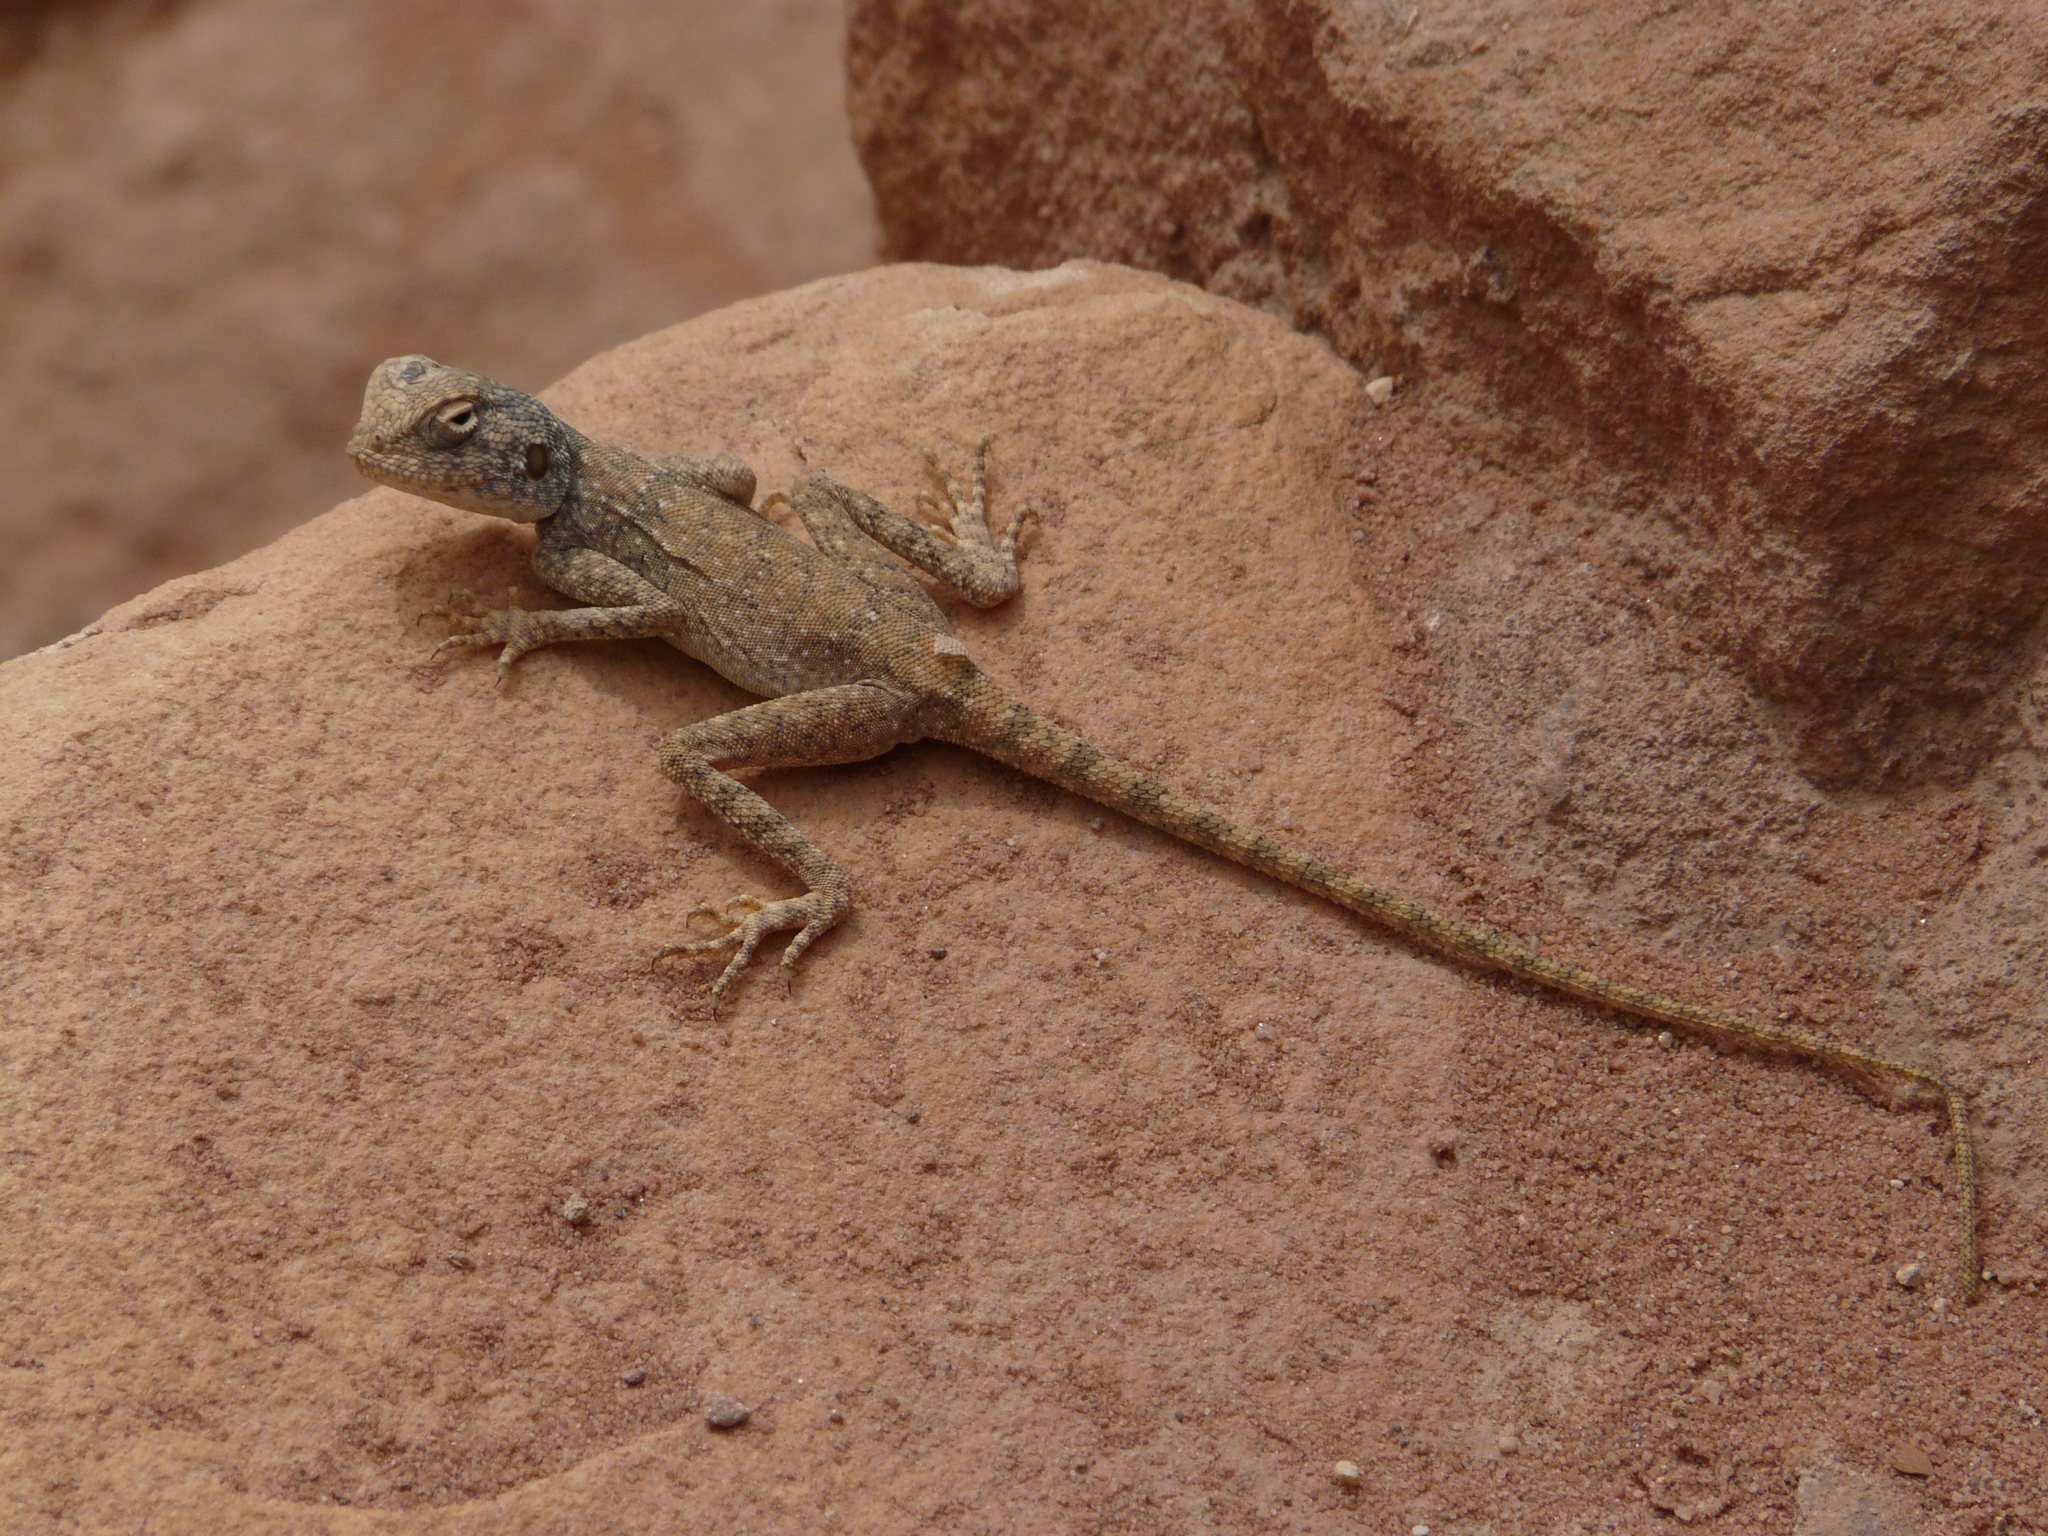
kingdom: Animalia
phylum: Chordata
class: Squamata
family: Agamidae
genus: Pseudotrapelus
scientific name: Pseudotrapelus sinaitus
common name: Sinai agama
